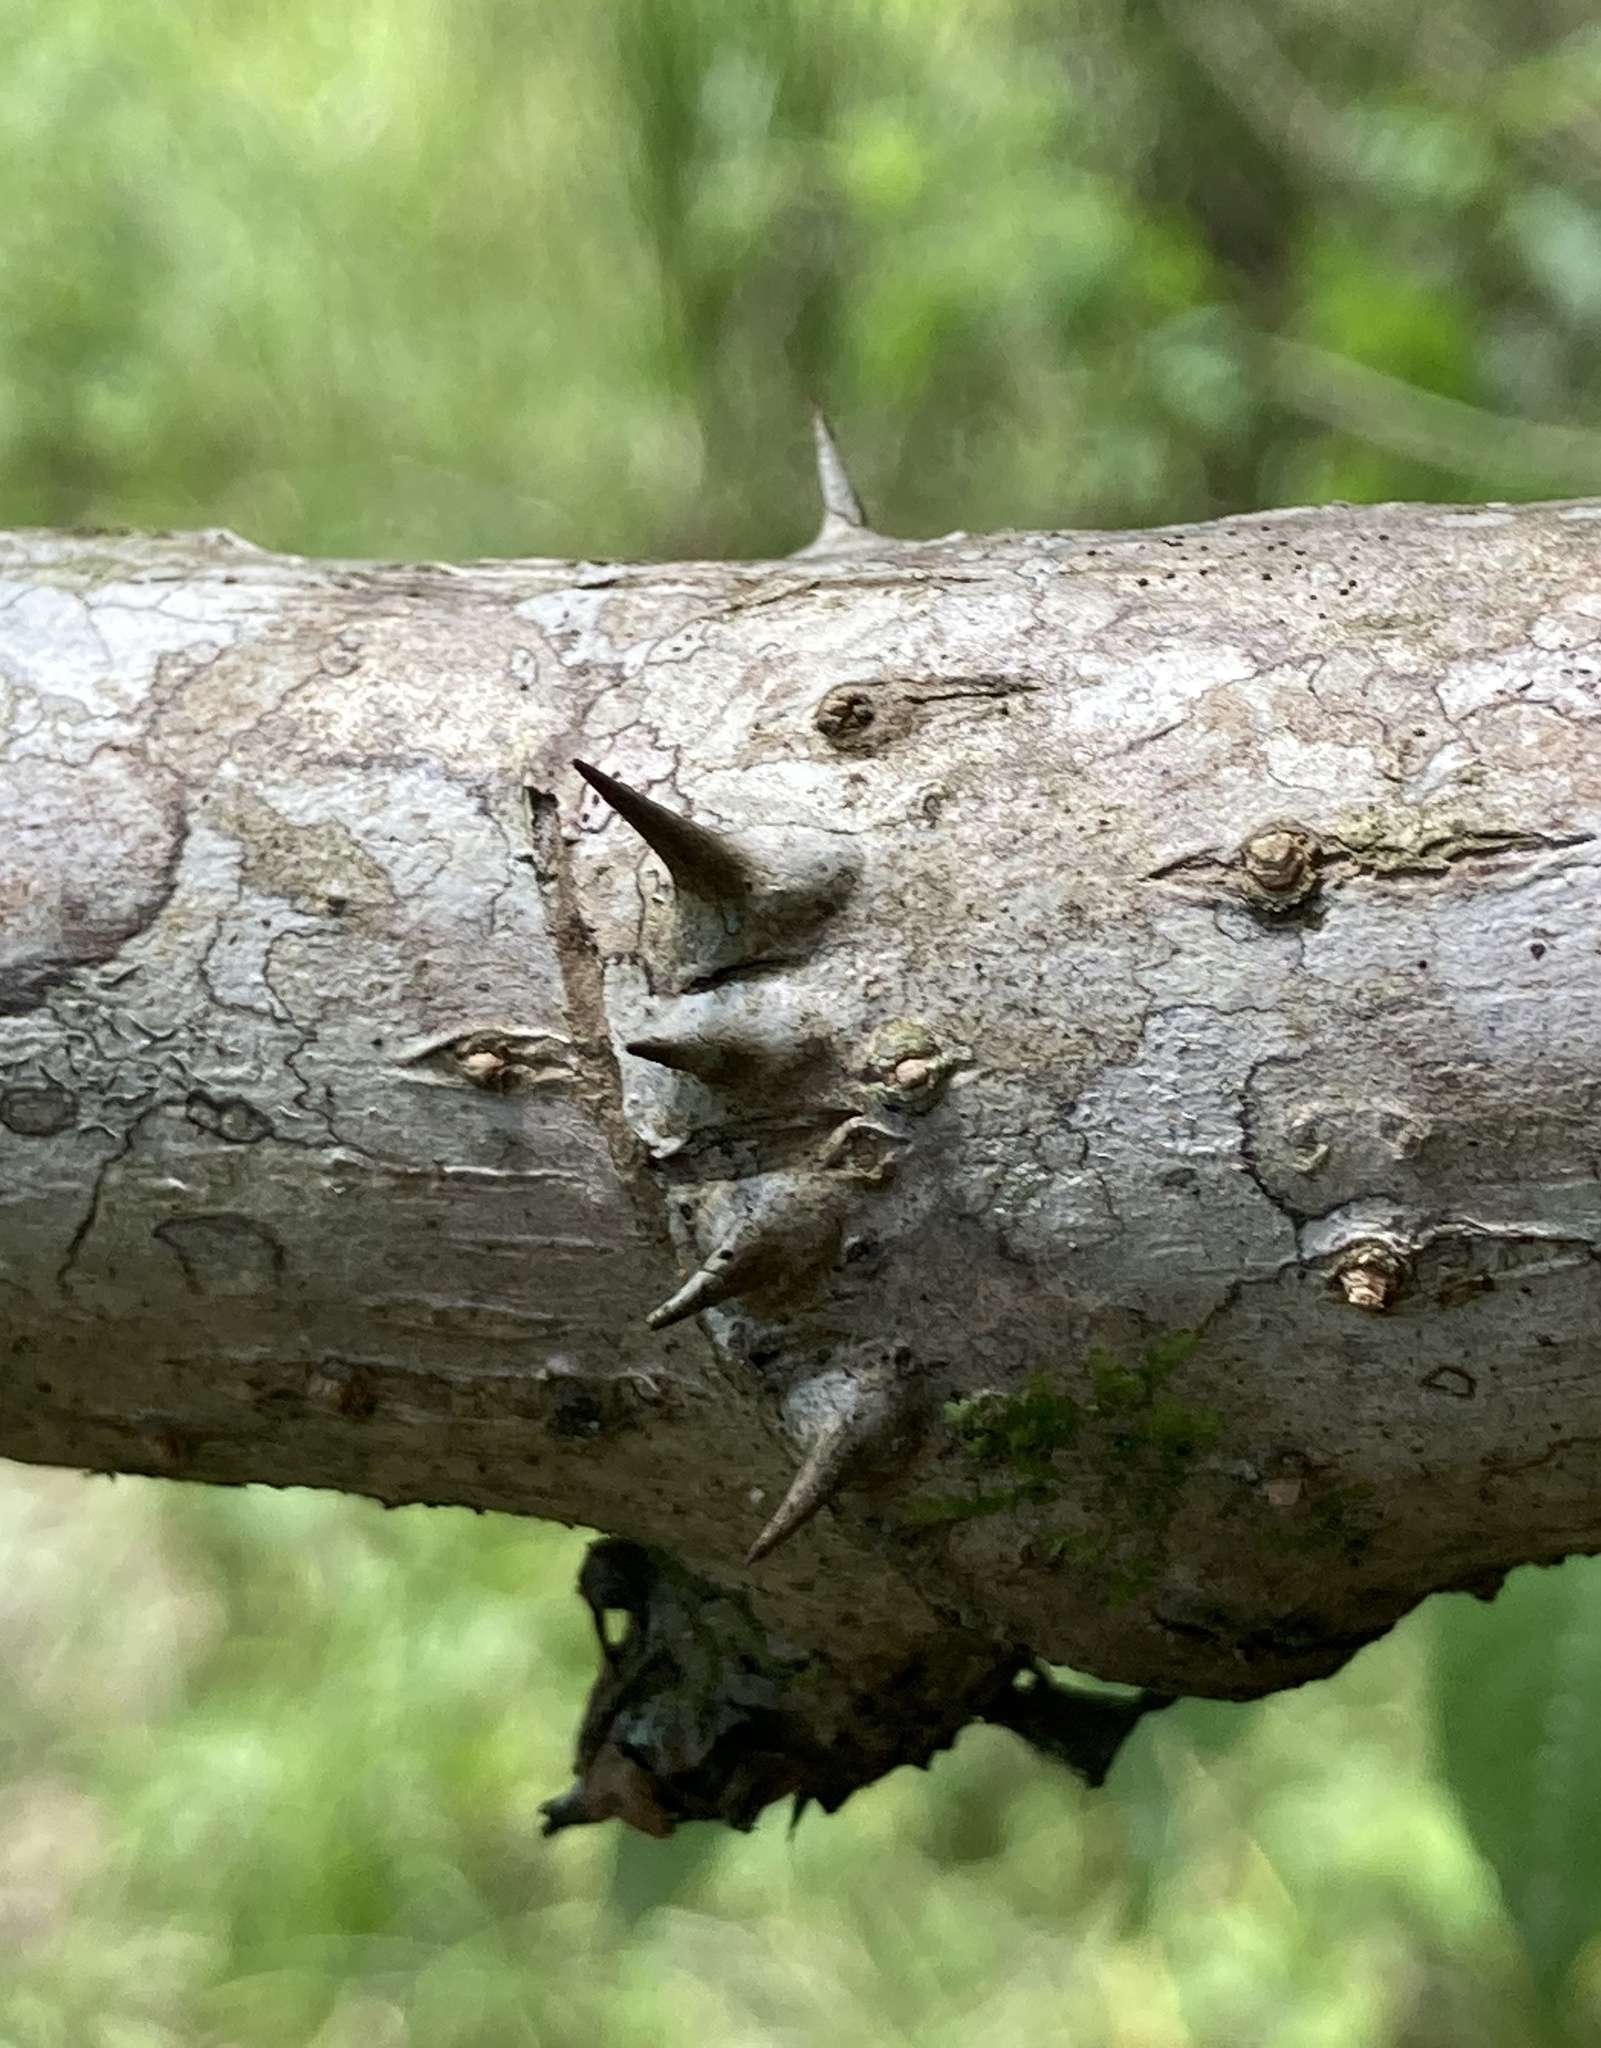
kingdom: Plantae
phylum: Tracheophyta
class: Magnoliopsida
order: Apiales
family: Araliaceae
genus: Aralia
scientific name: Aralia spinosa
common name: Hercules'-club
